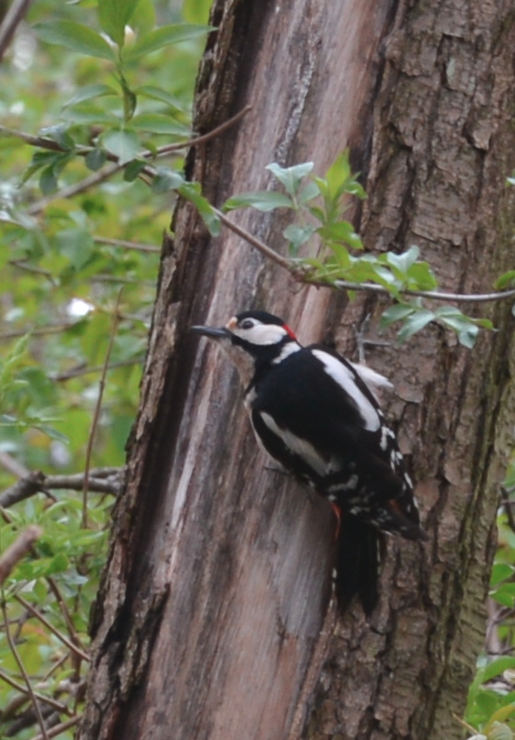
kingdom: Animalia
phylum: Chordata
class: Aves
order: Piciformes
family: Picidae
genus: Dendrocopos
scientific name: Dendrocopos major
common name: Great spotted woodpecker
